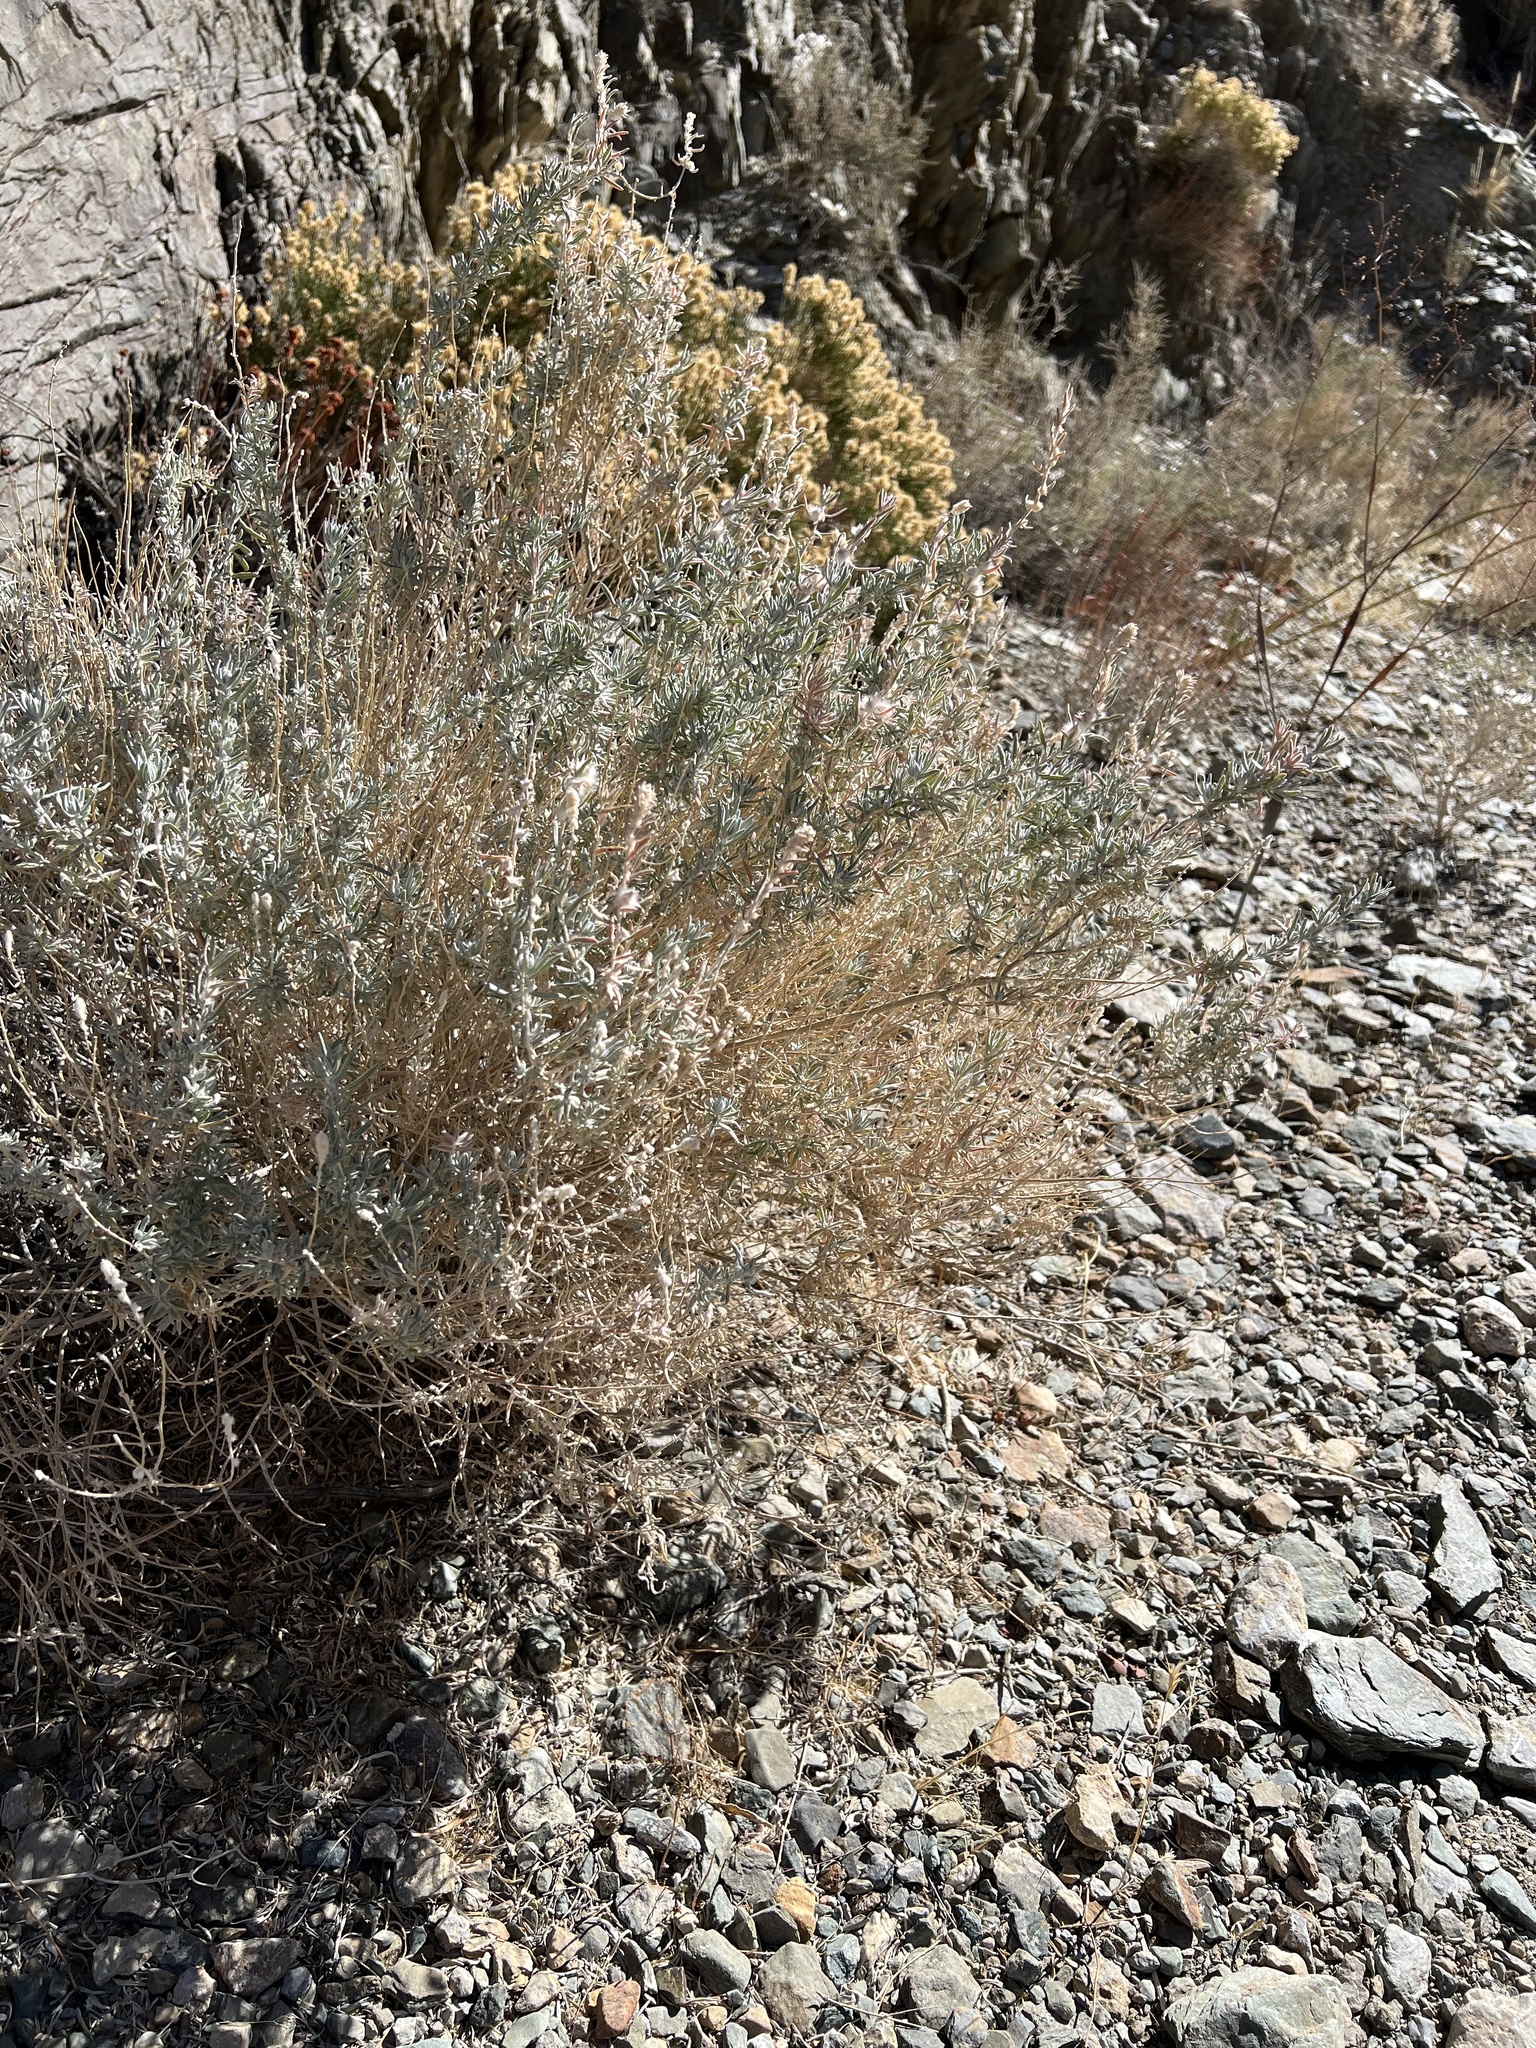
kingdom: Plantae
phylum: Tracheophyta
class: Magnoliopsida
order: Caryophyllales
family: Amaranthaceae
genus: Krascheninnikovia
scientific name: Krascheninnikovia lanata
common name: Winterfat
